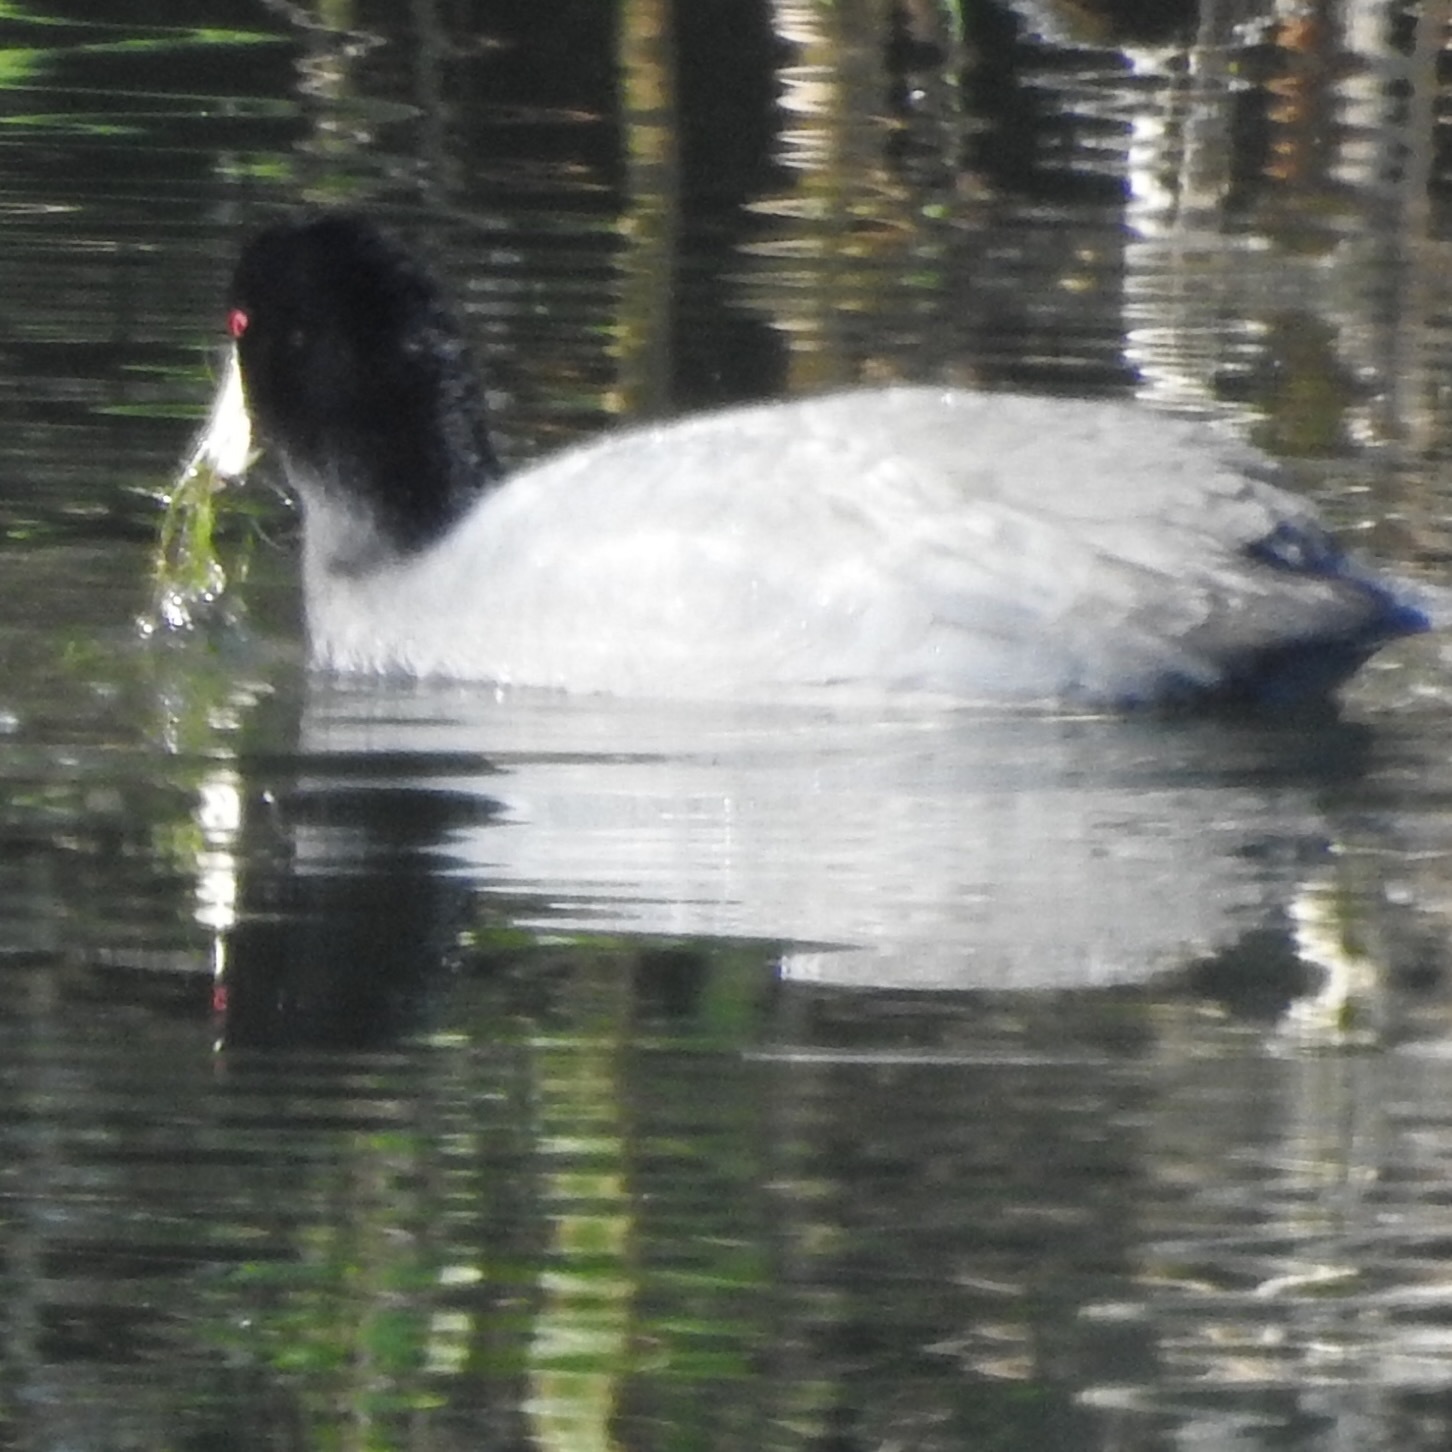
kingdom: Animalia
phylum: Chordata
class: Aves
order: Gruiformes
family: Rallidae
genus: Fulica
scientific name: Fulica americana
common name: American coot
